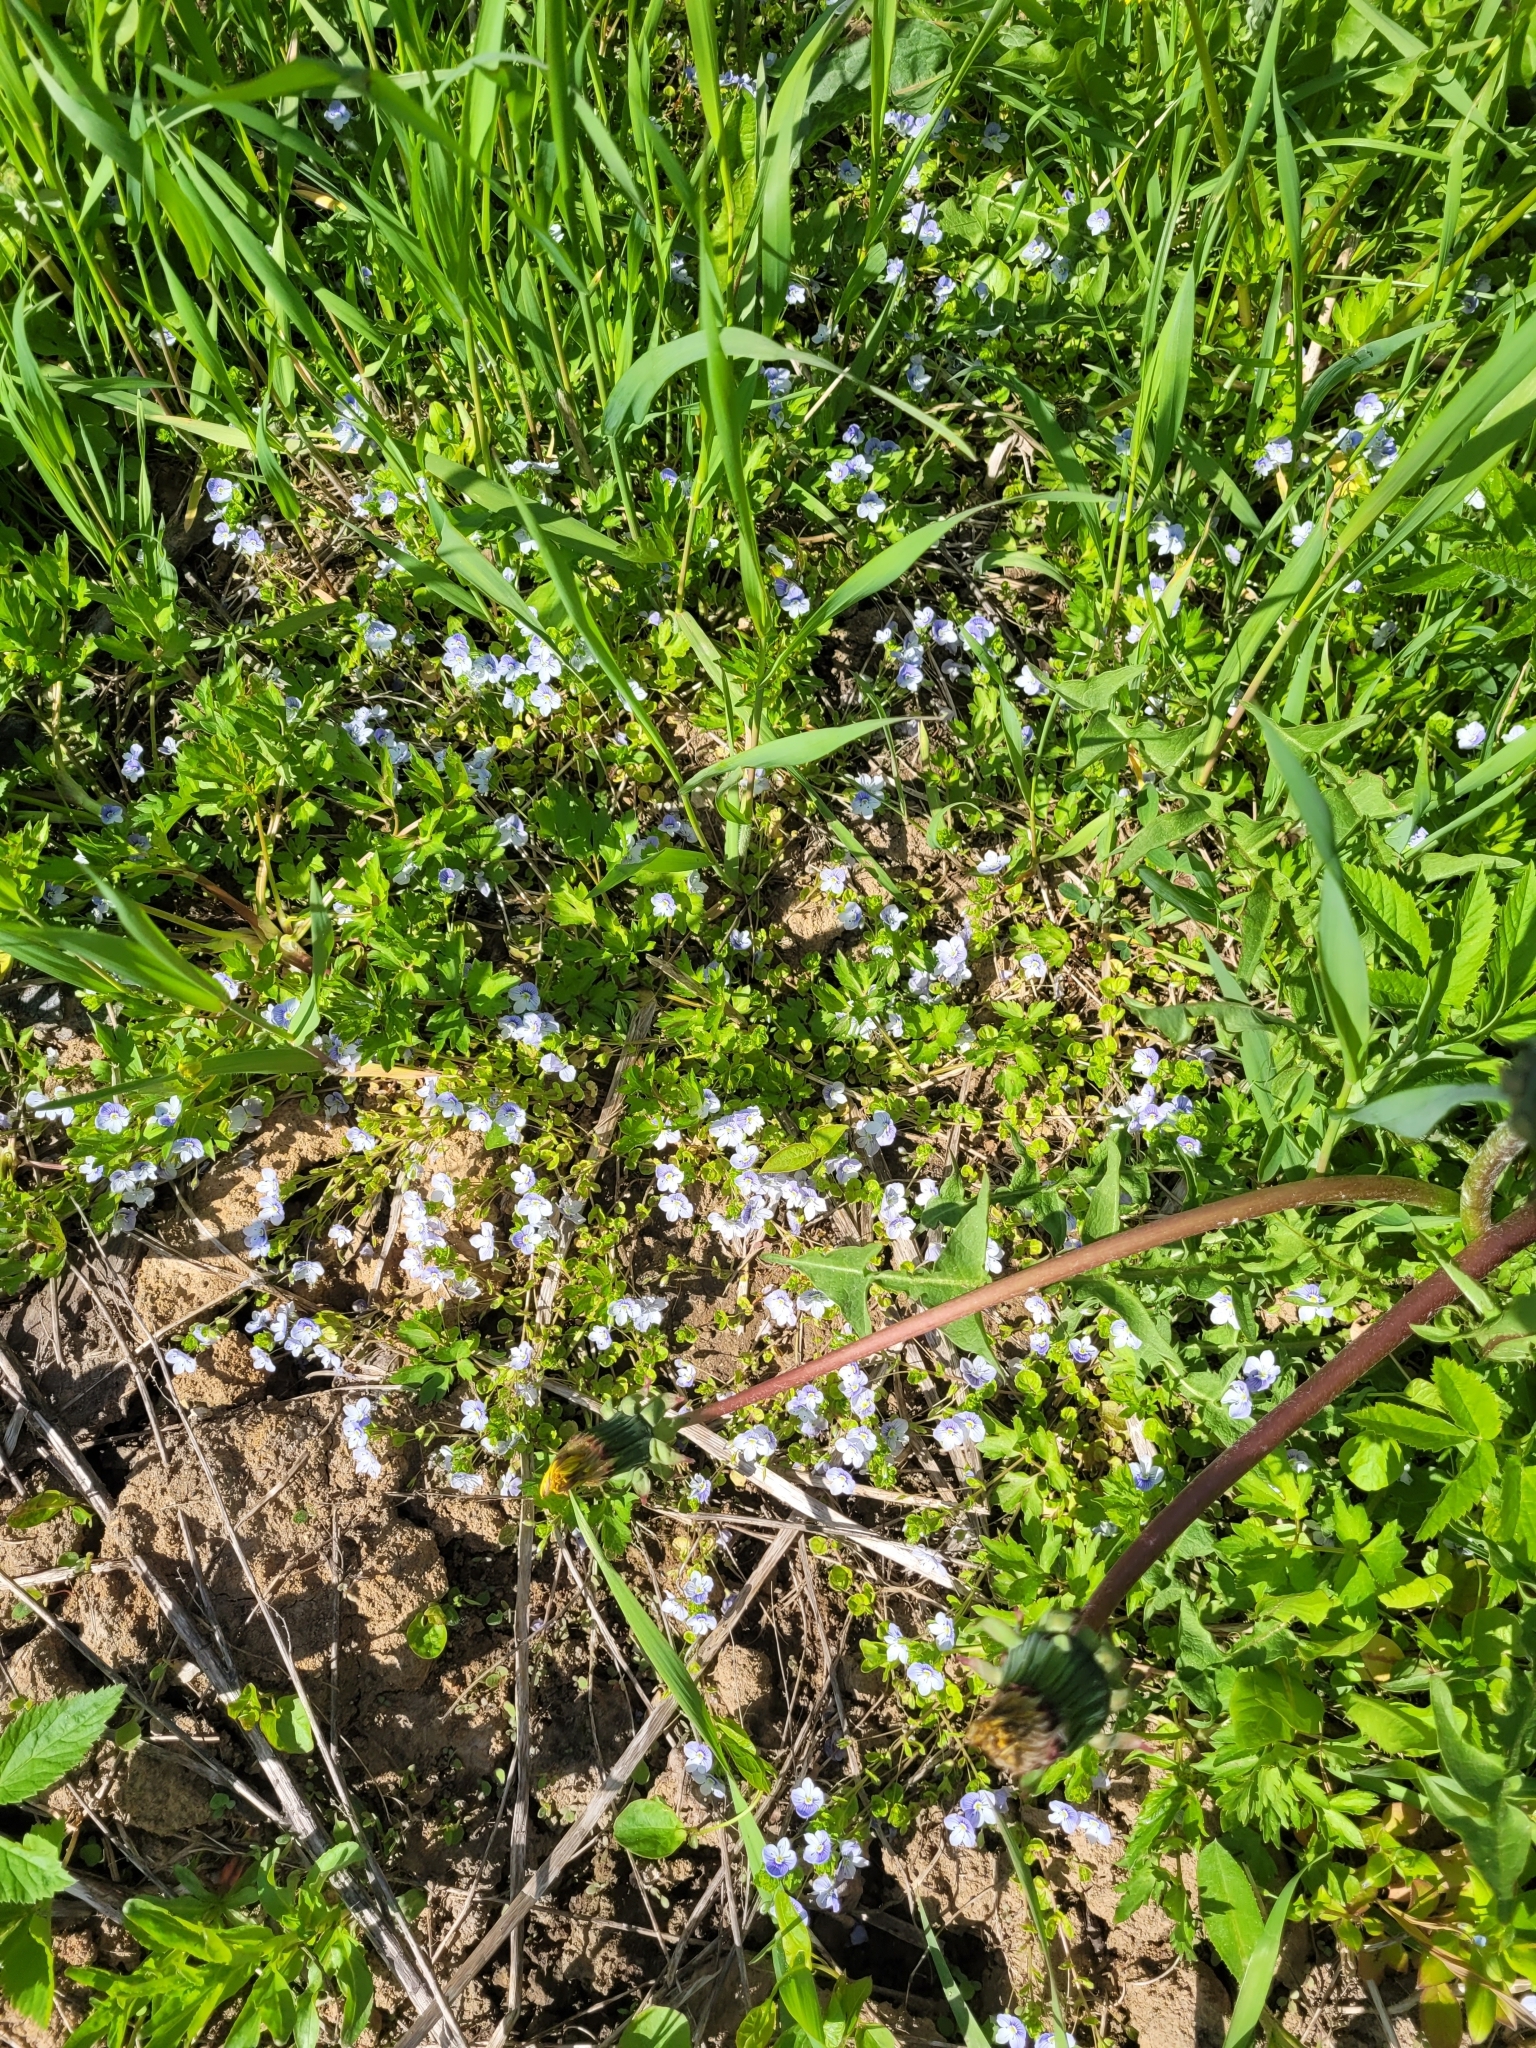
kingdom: Plantae
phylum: Tracheophyta
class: Magnoliopsida
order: Lamiales
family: Plantaginaceae
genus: Veronica
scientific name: Veronica filiformis
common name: Slender speedwell
